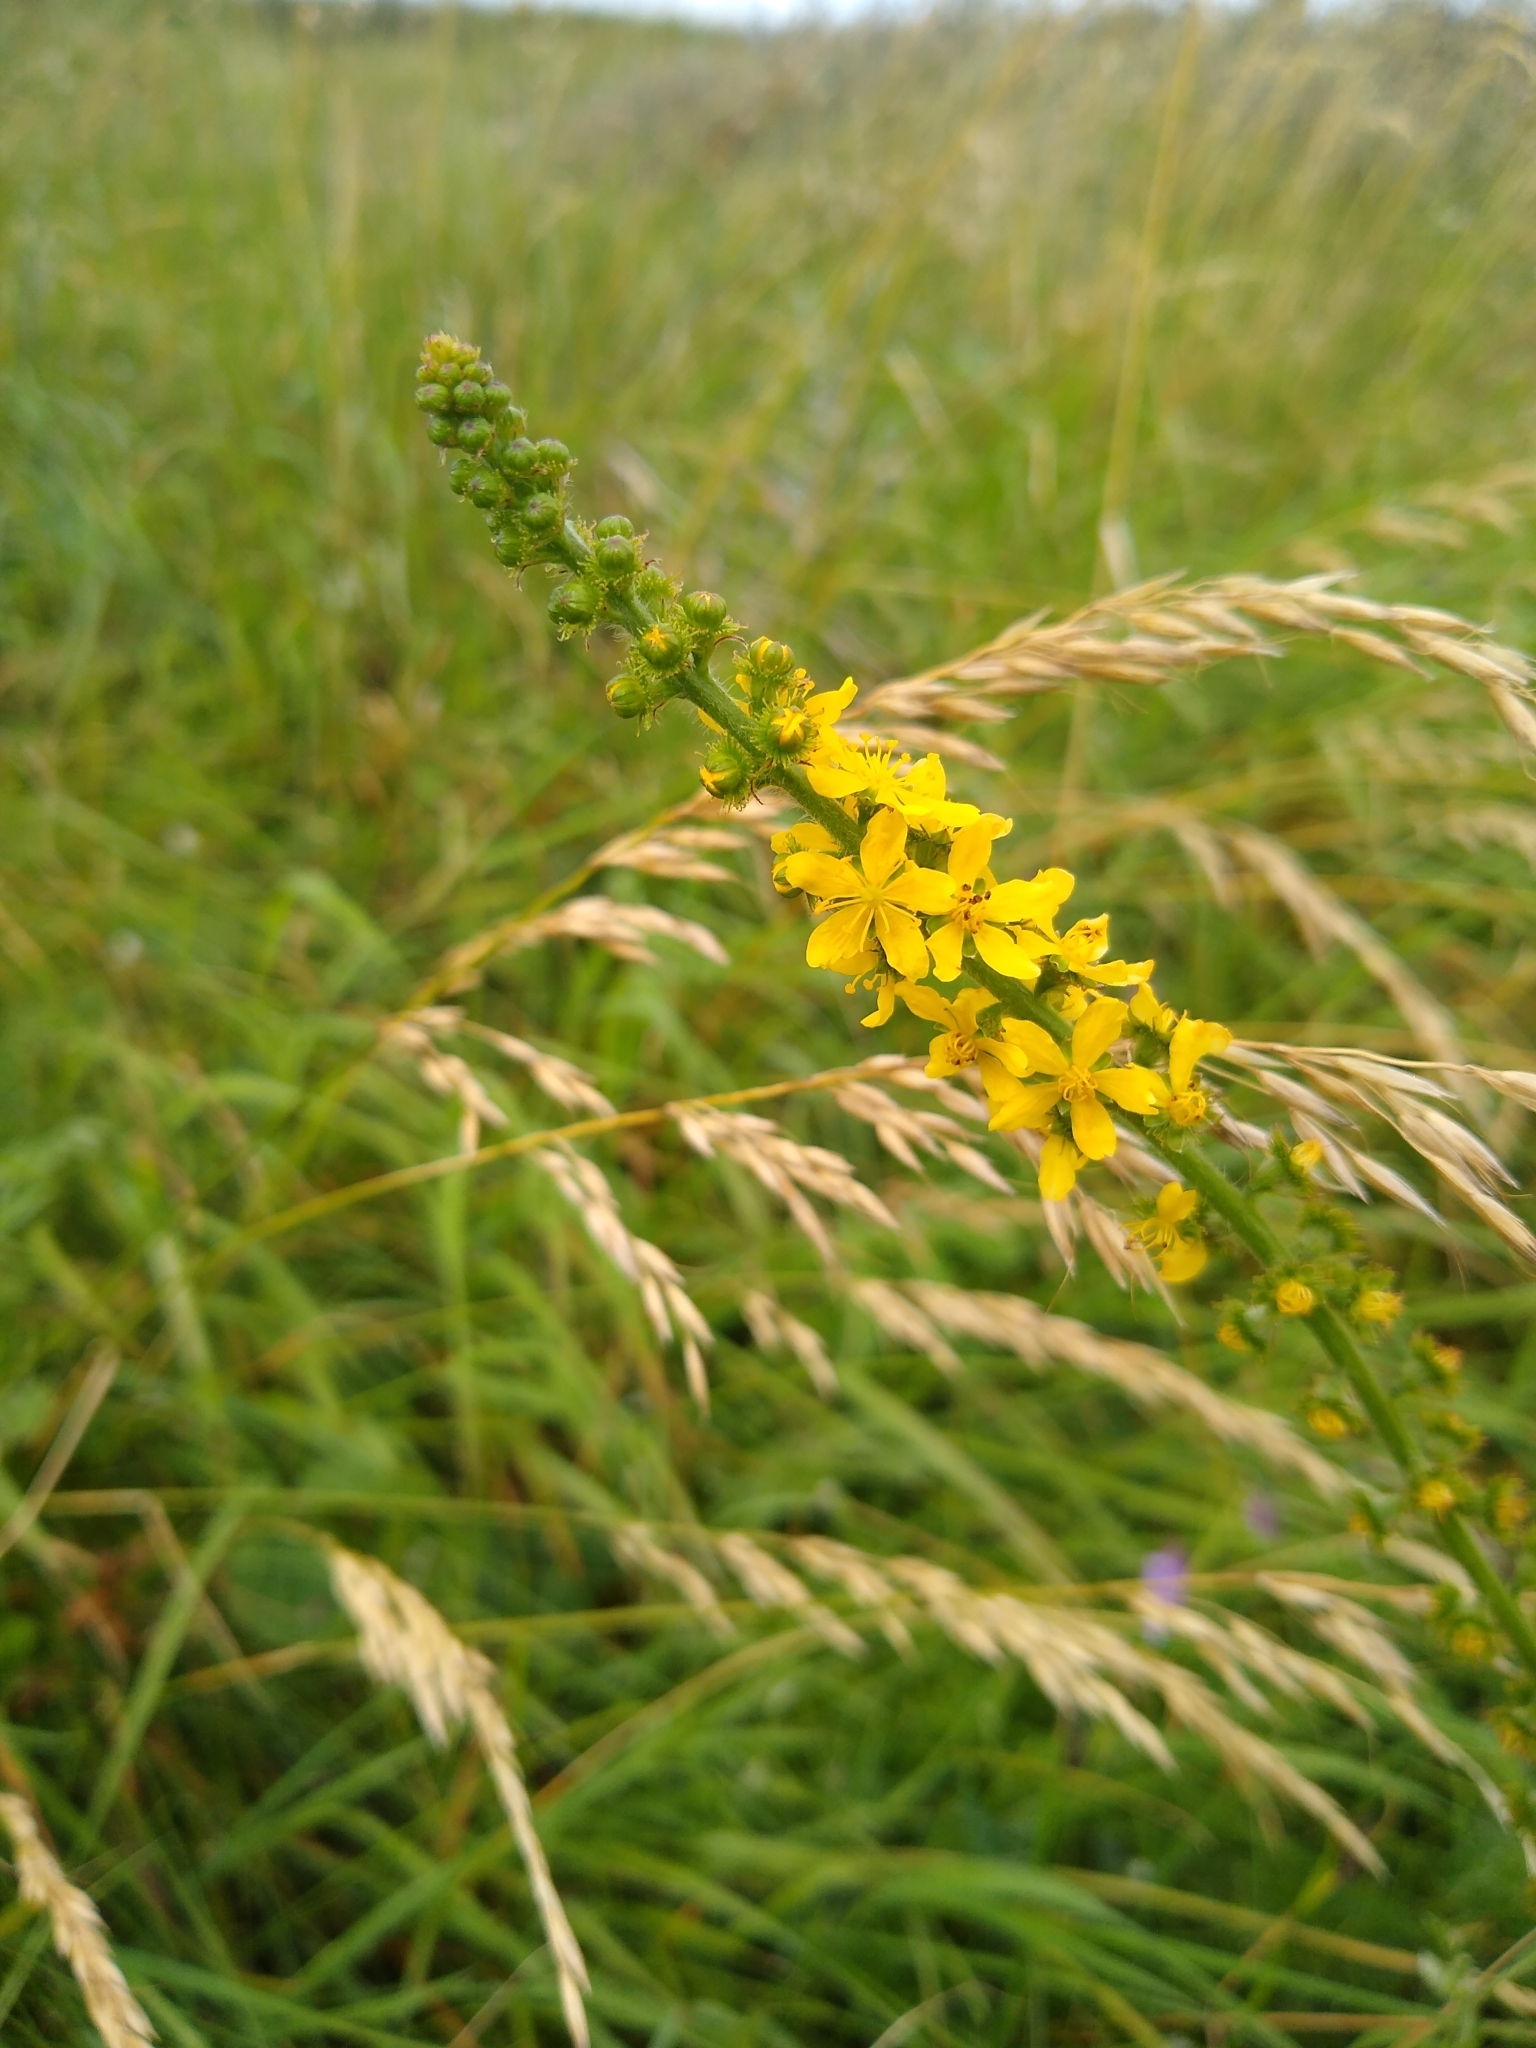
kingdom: Plantae
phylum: Tracheophyta
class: Magnoliopsida
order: Rosales
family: Rosaceae
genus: Agrimonia
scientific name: Agrimonia eupatoria
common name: Agrimony
